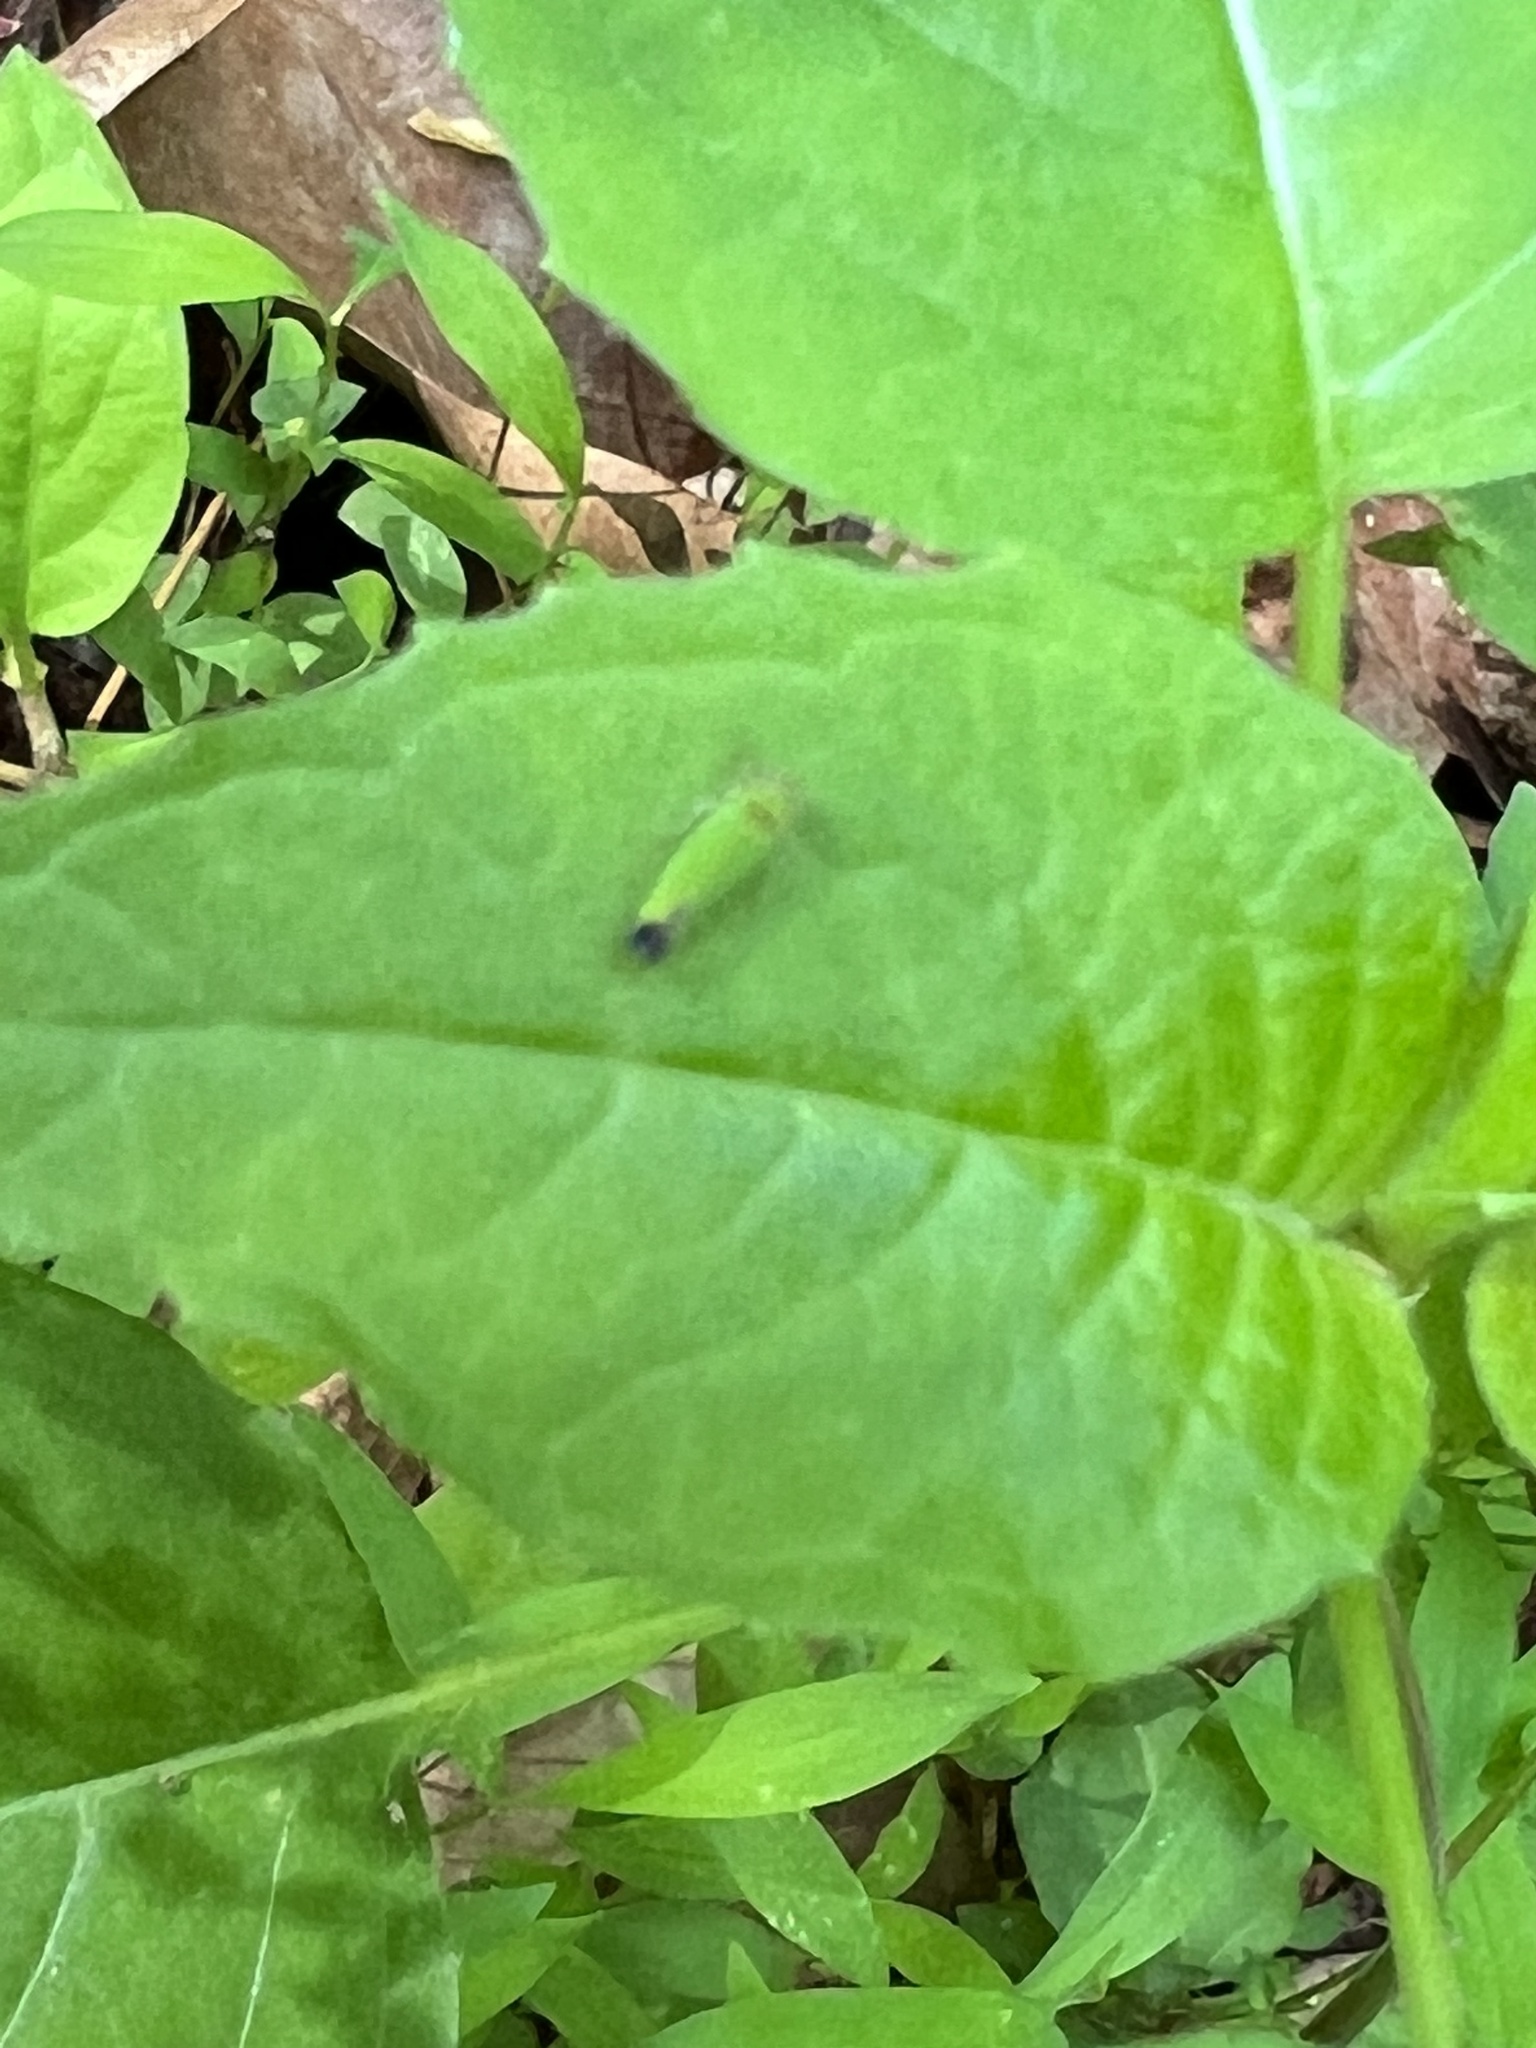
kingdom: Animalia
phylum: Arthropoda
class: Insecta
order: Hemiptera
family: Cicadellidae
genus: Tylozygus
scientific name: Tylozygus geometricus
